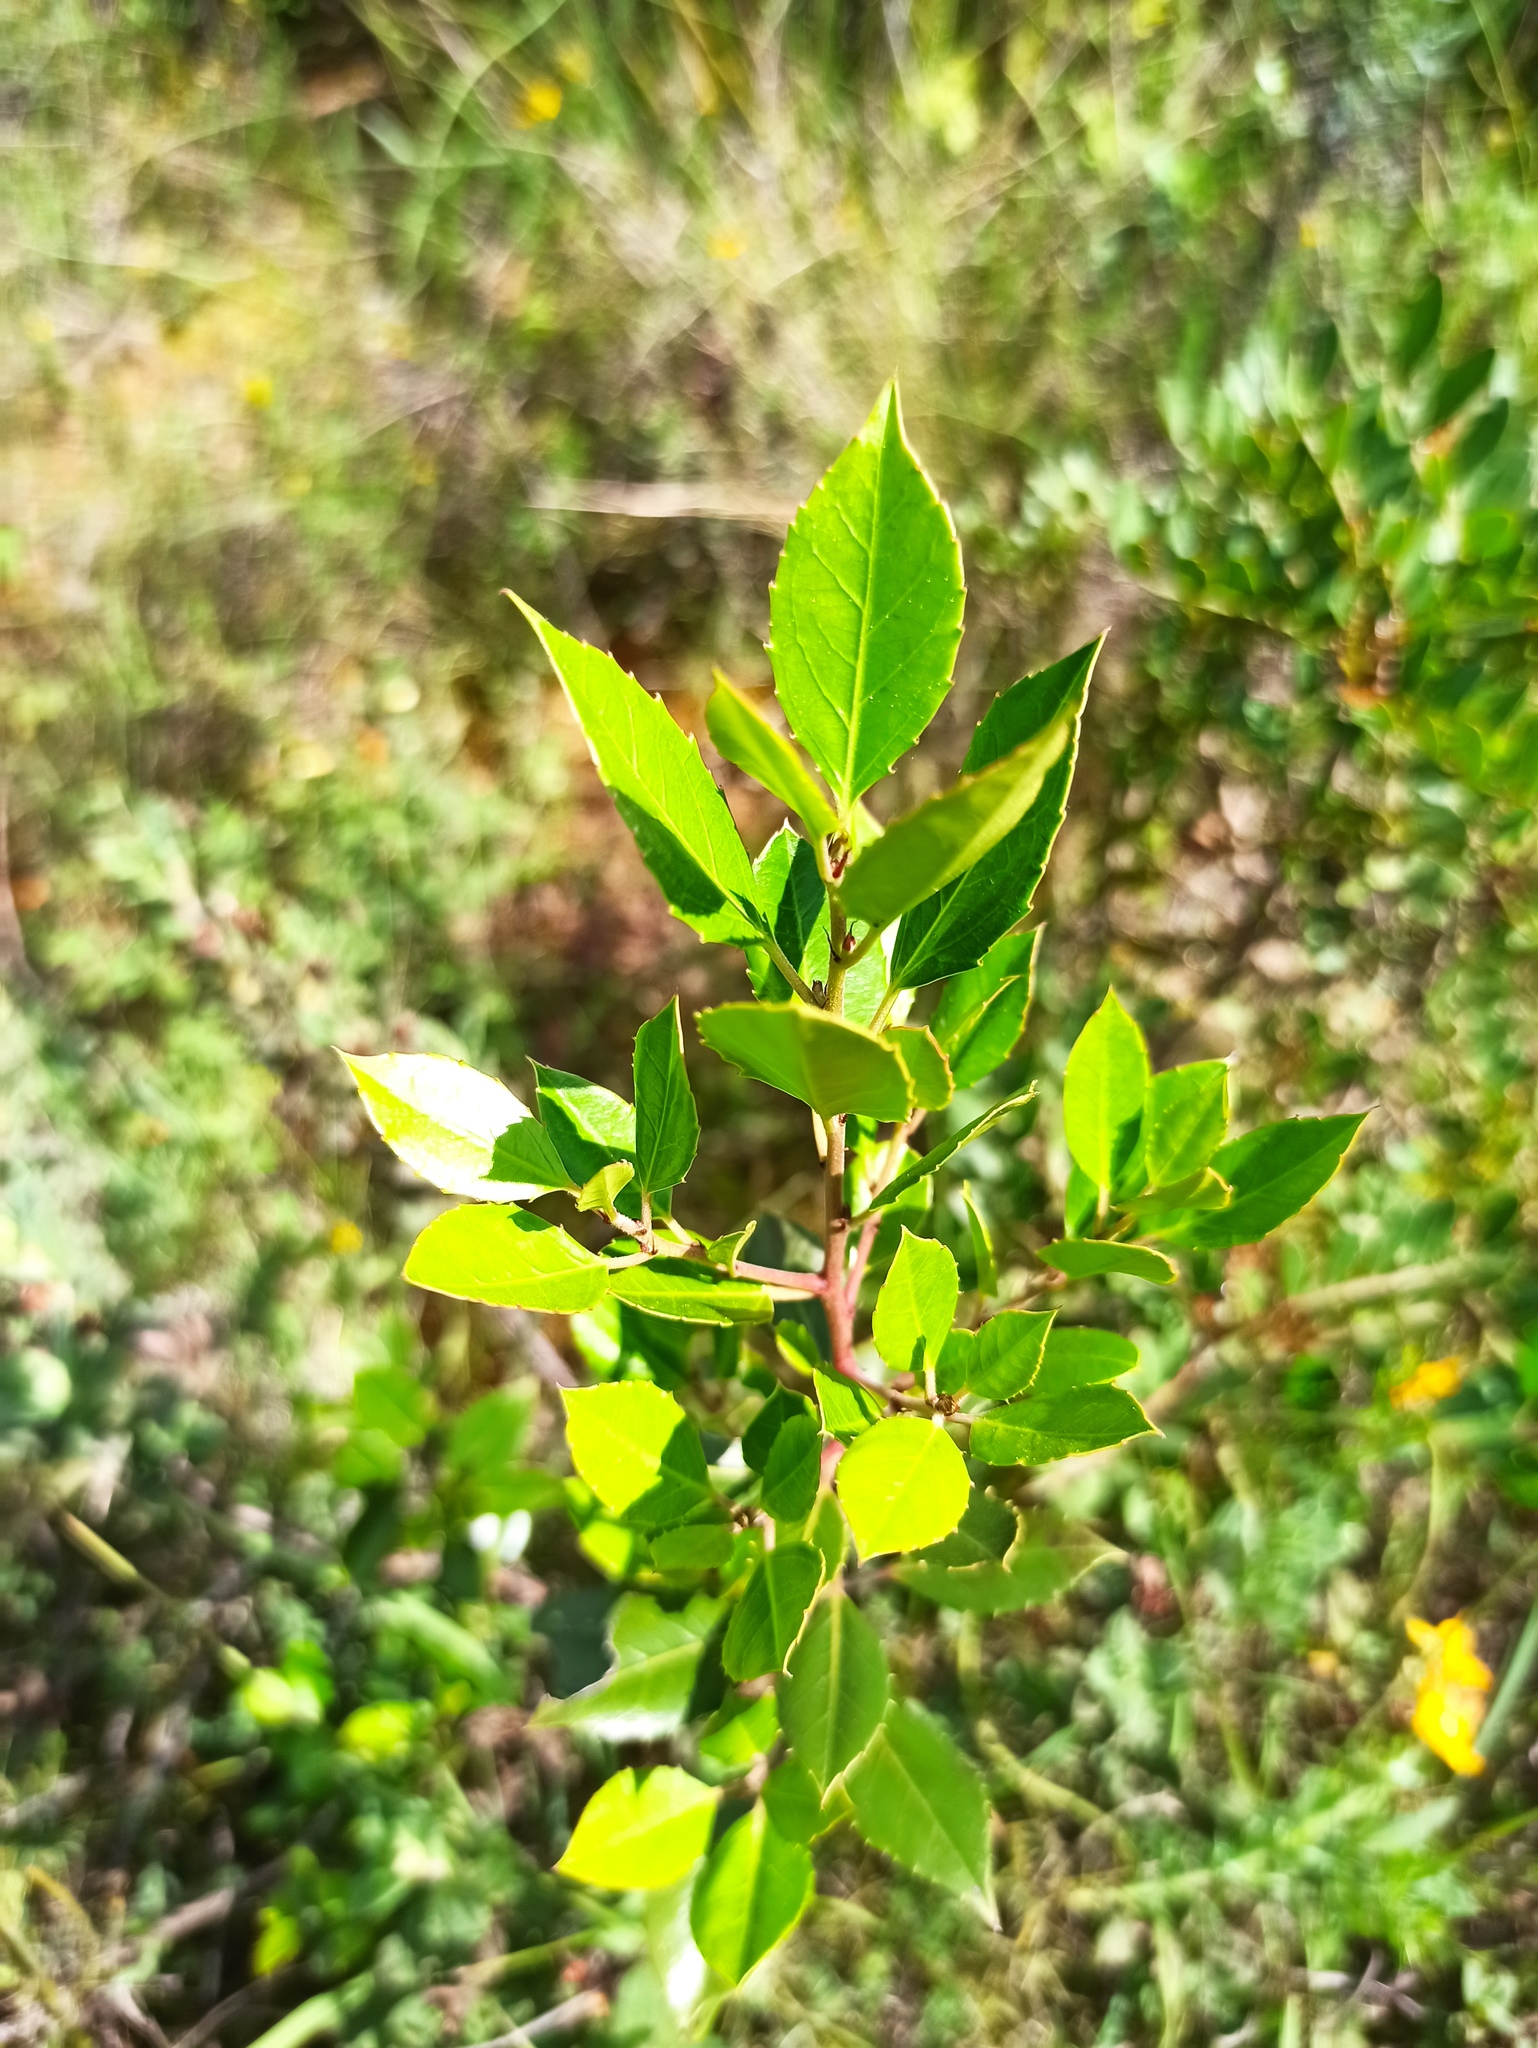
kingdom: Plantae
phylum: Tracheophyta
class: Magnoliopsida
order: Rosales
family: Rhamnaceae
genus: Rhamnus
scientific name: Rhamnus alaternus
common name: Mediterranean buckthorn
